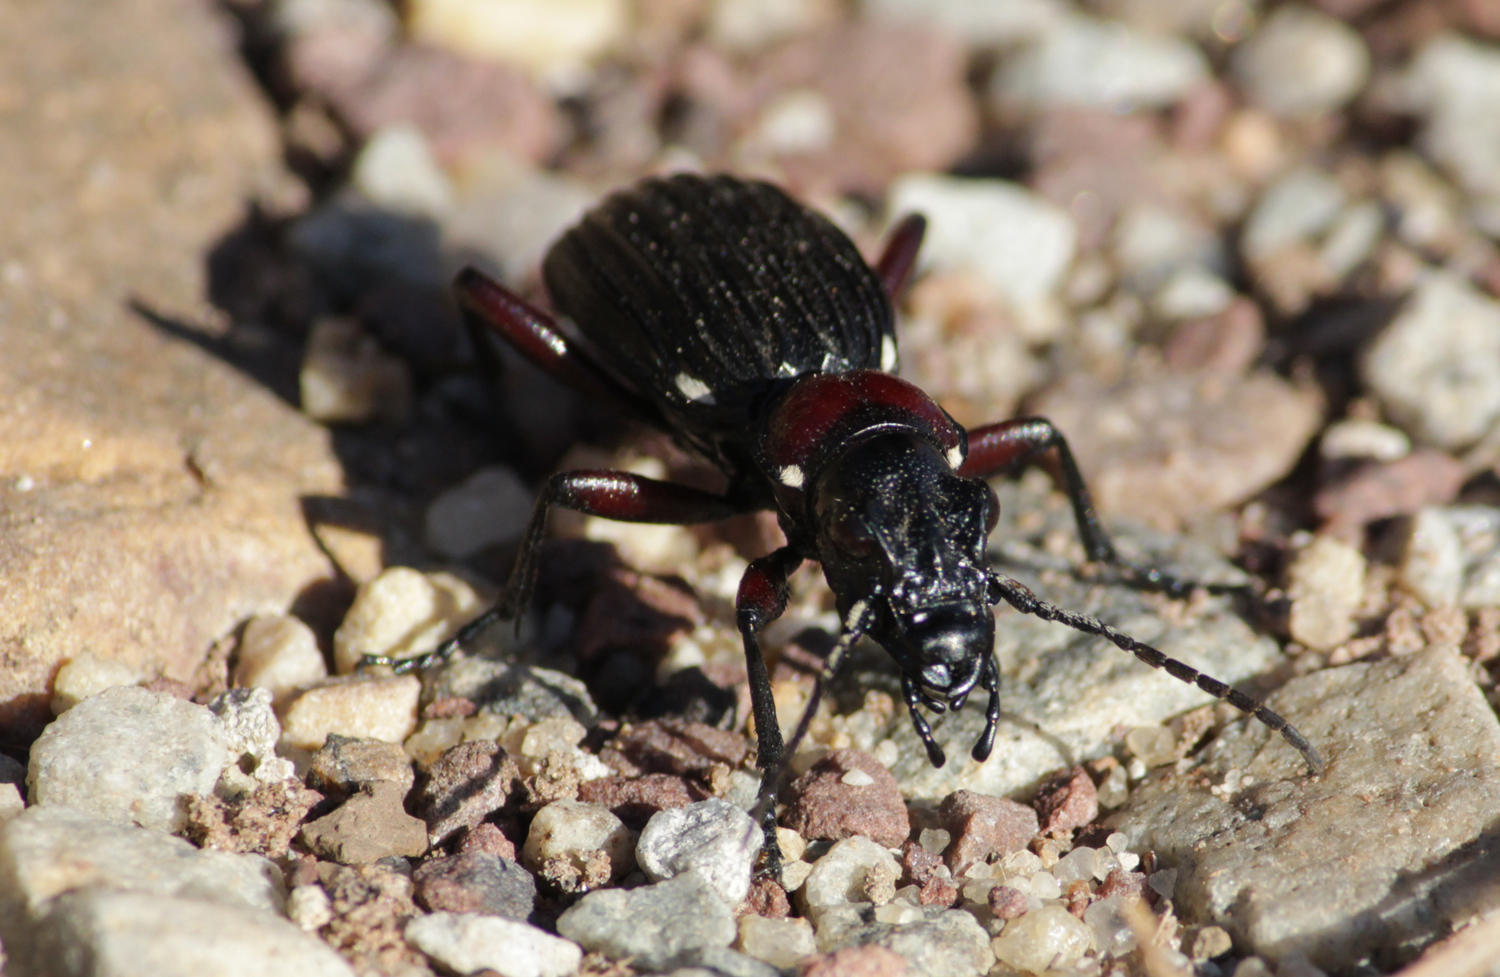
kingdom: Animalia
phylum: Arthropoda
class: Insecta
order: Coleoptera
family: Carabidae
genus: Anthia
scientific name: Anthia decemguttata
